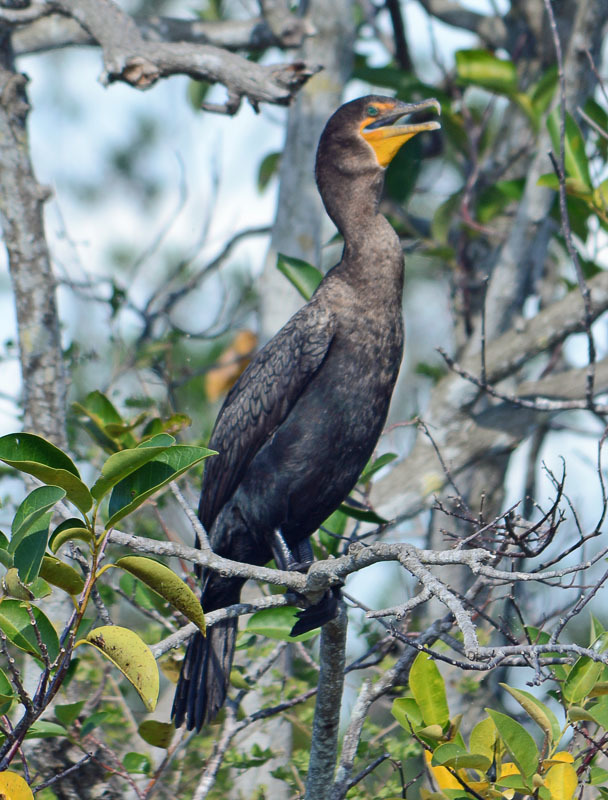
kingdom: Animalia
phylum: Chordata
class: Aves
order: Suliformes
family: Phalacrocoracidae
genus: Phalacrocorax
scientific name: Phalacrocorax auritus
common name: Double-crested cormorant
